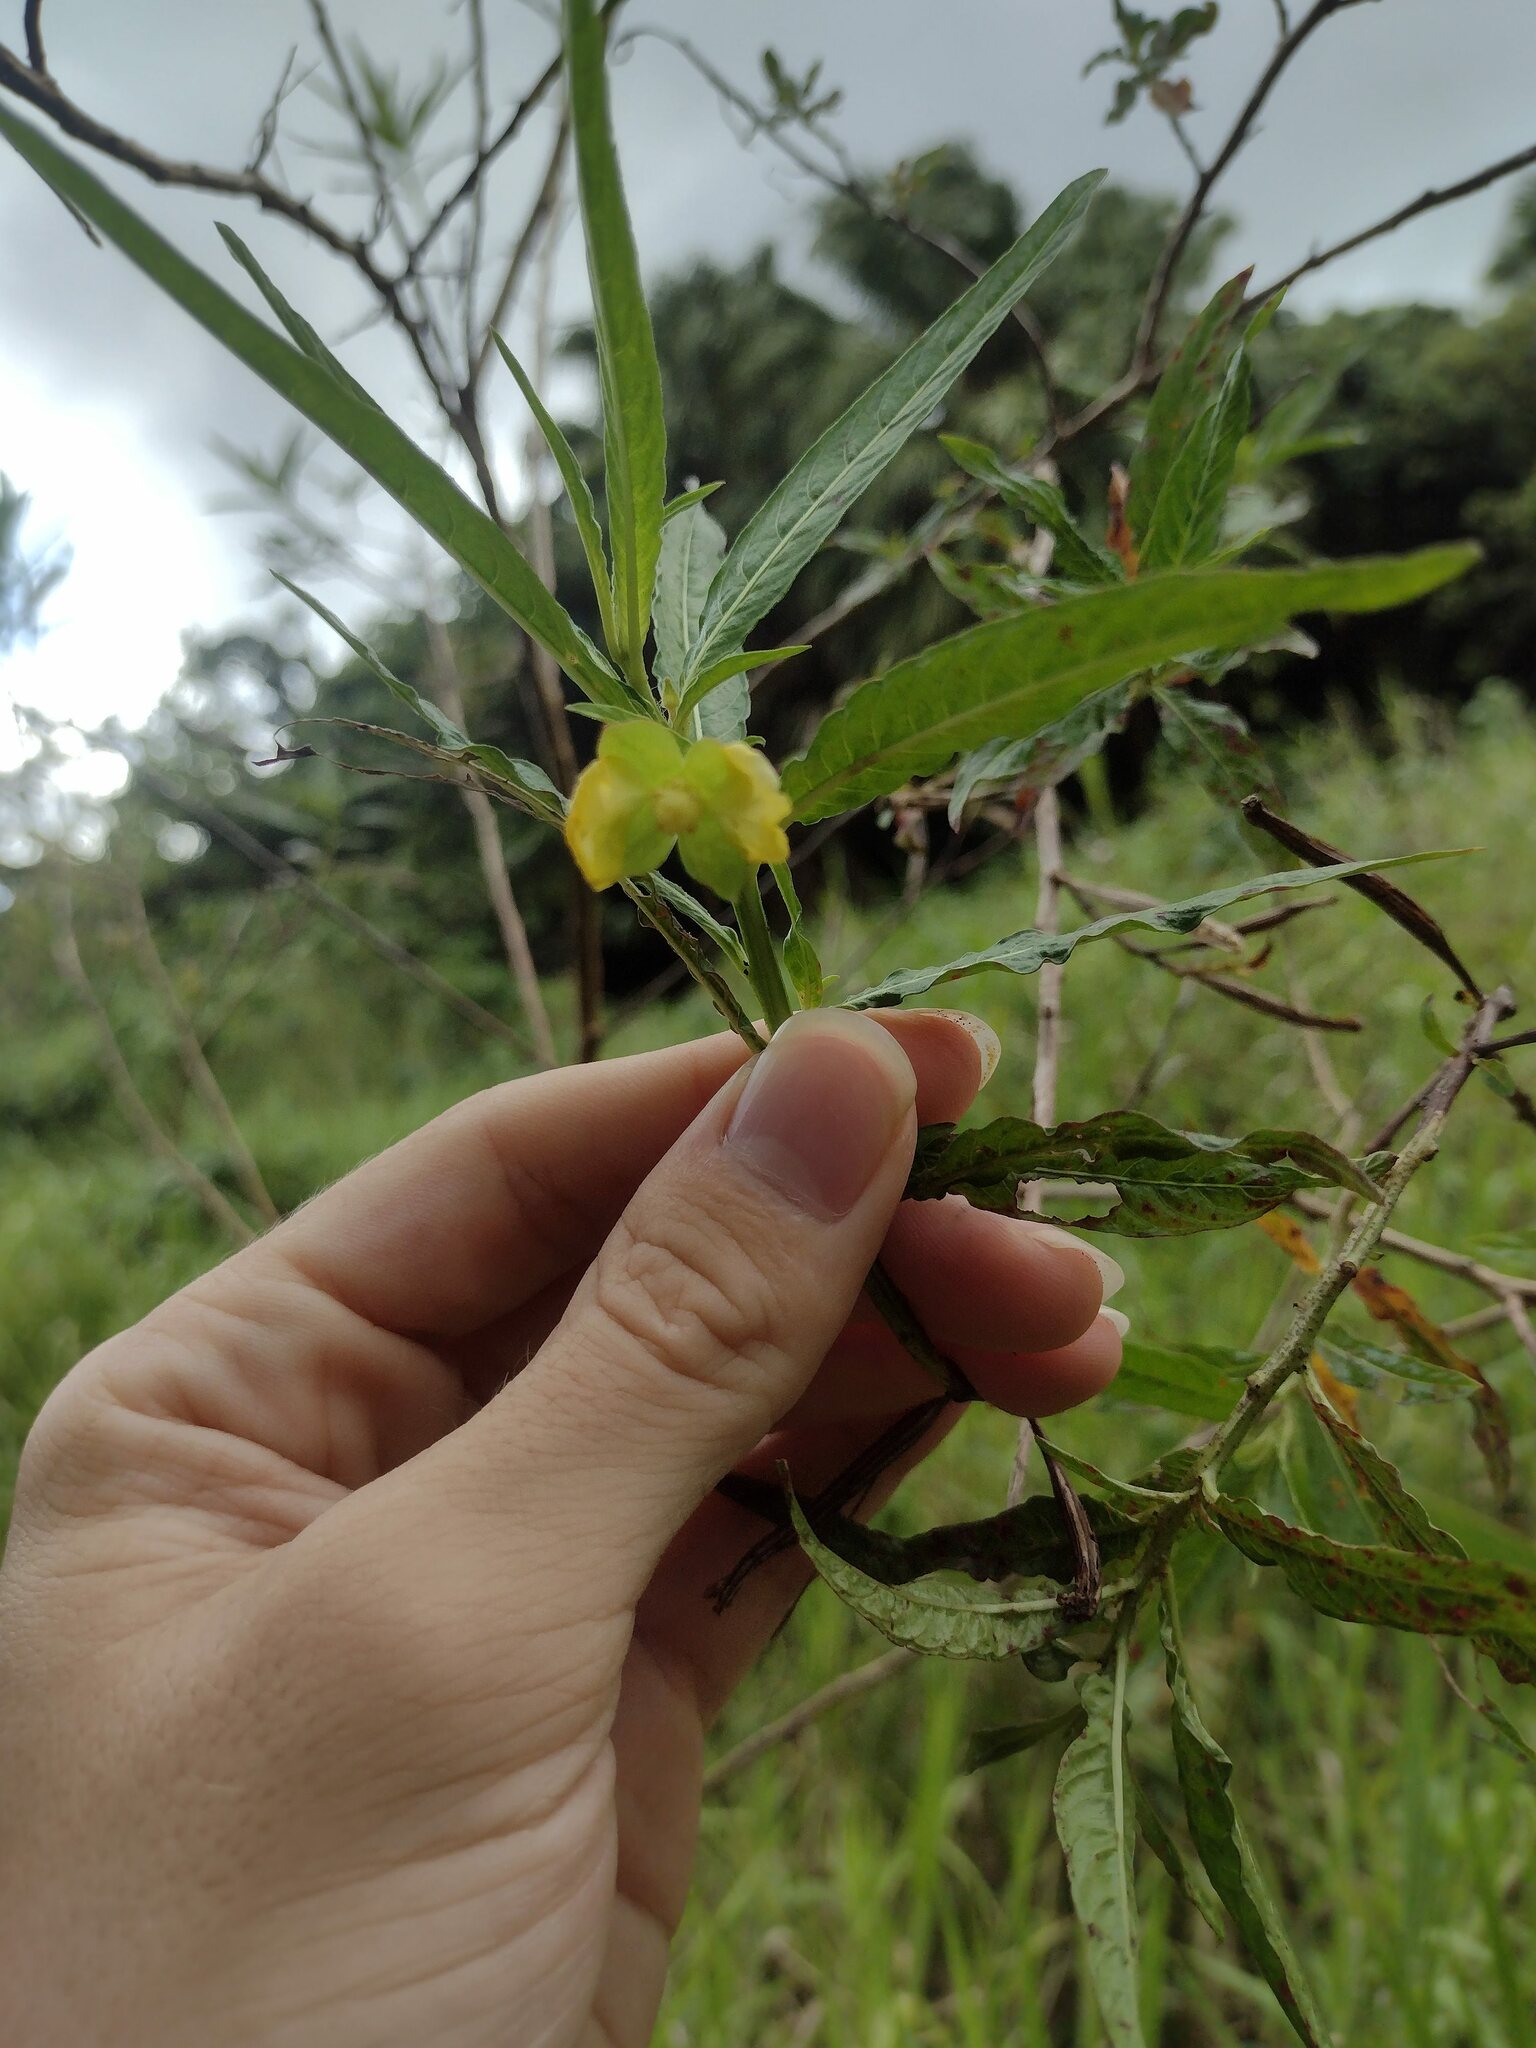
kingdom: Plantae
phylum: Tracheophyta
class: Magnoliopsida
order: Myrtales
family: Onagraceae
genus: Ludwigia
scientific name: Ludwigia octovalvis
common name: Water-primrose
